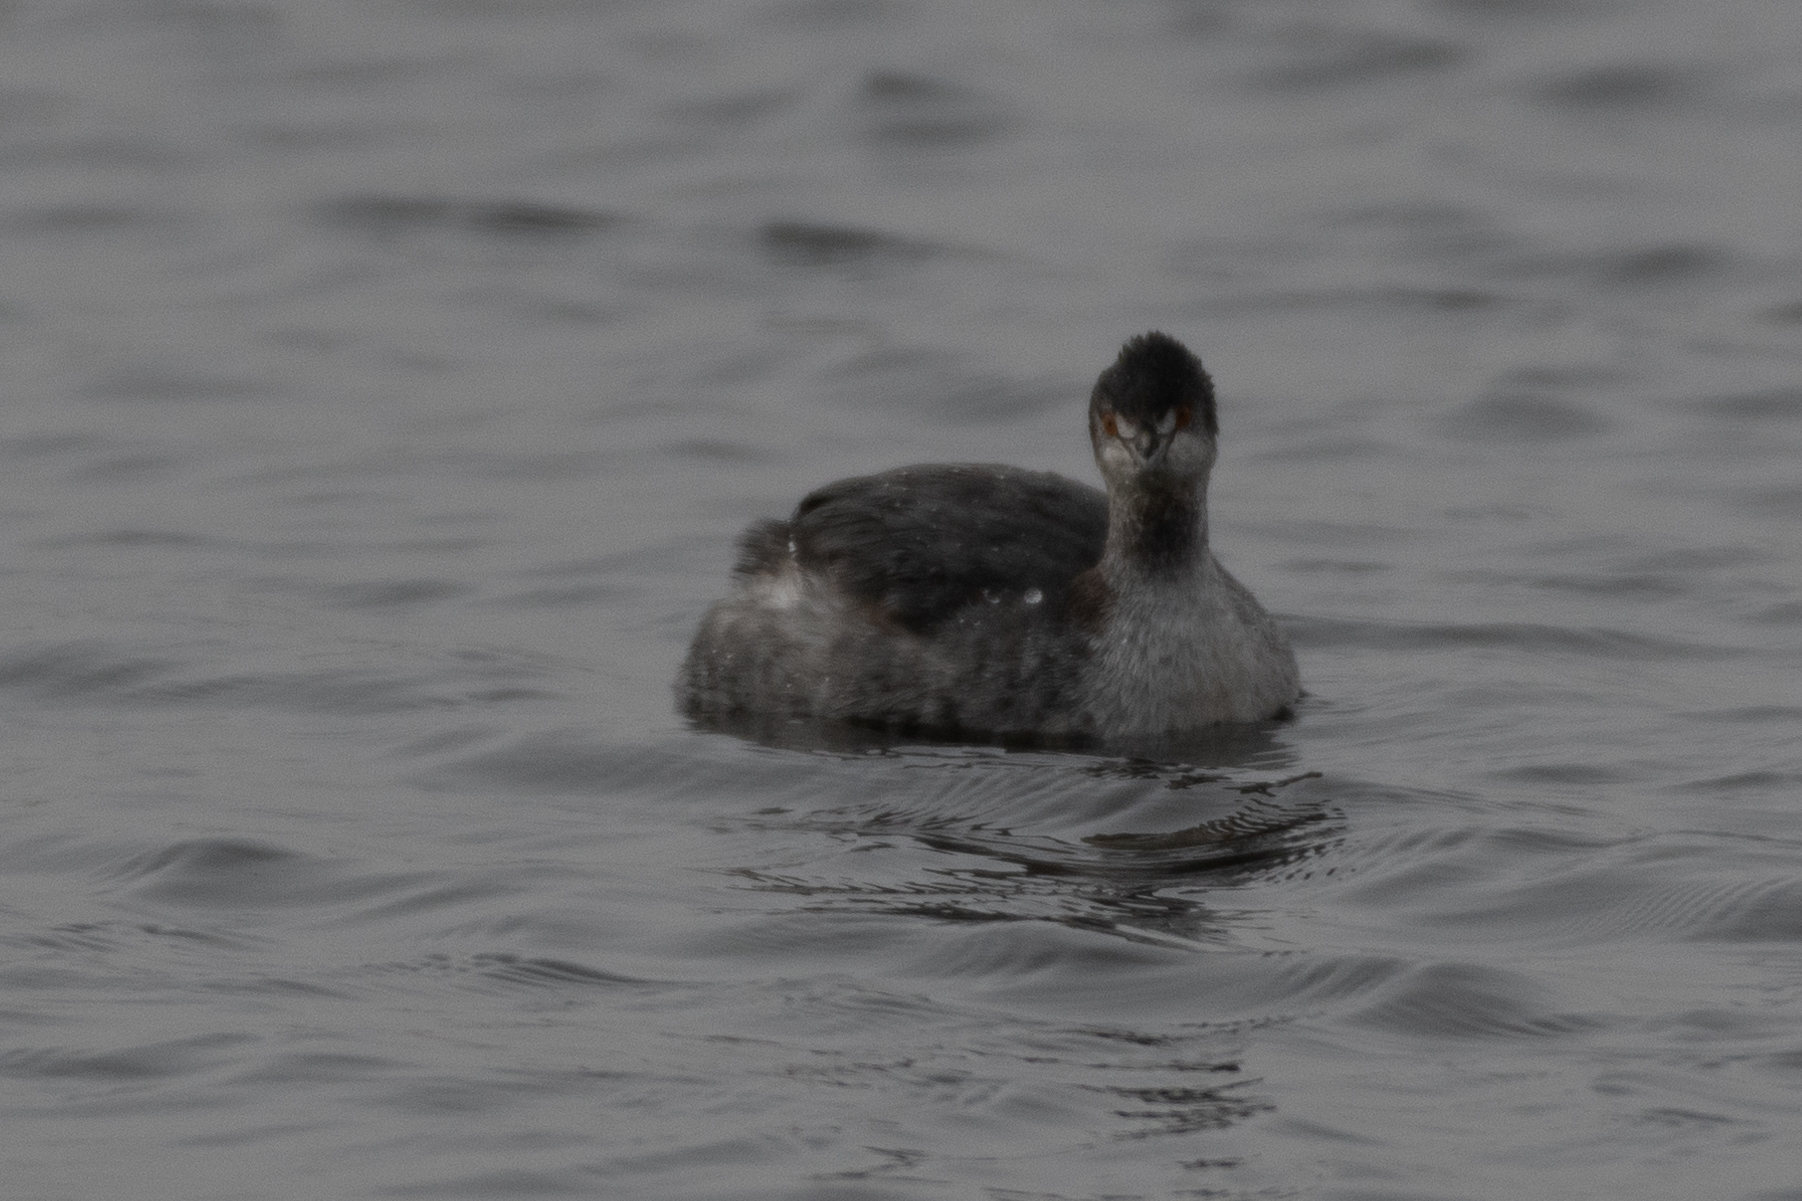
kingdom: Animalia
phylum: Chordata
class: Aves
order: Podicipediformes
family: Podicipedidae
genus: Podiceps
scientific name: Podiceps nigricollis
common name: Black-necked grebe
